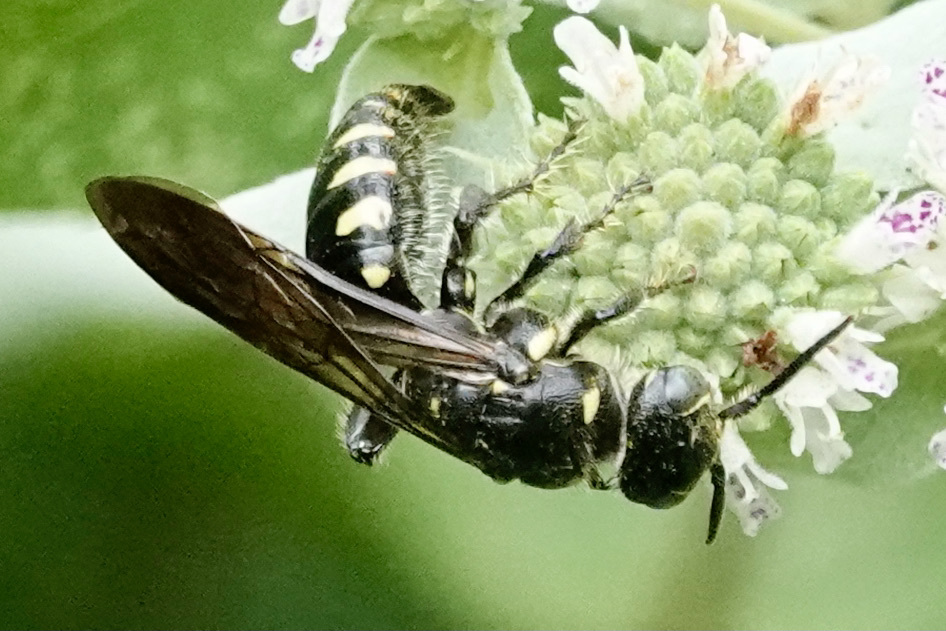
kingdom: Animalia
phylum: Arthropoda
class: Insecta
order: Hymenoptera
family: Tiphiidae
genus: Myzinum
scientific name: Myzinum obscurum
